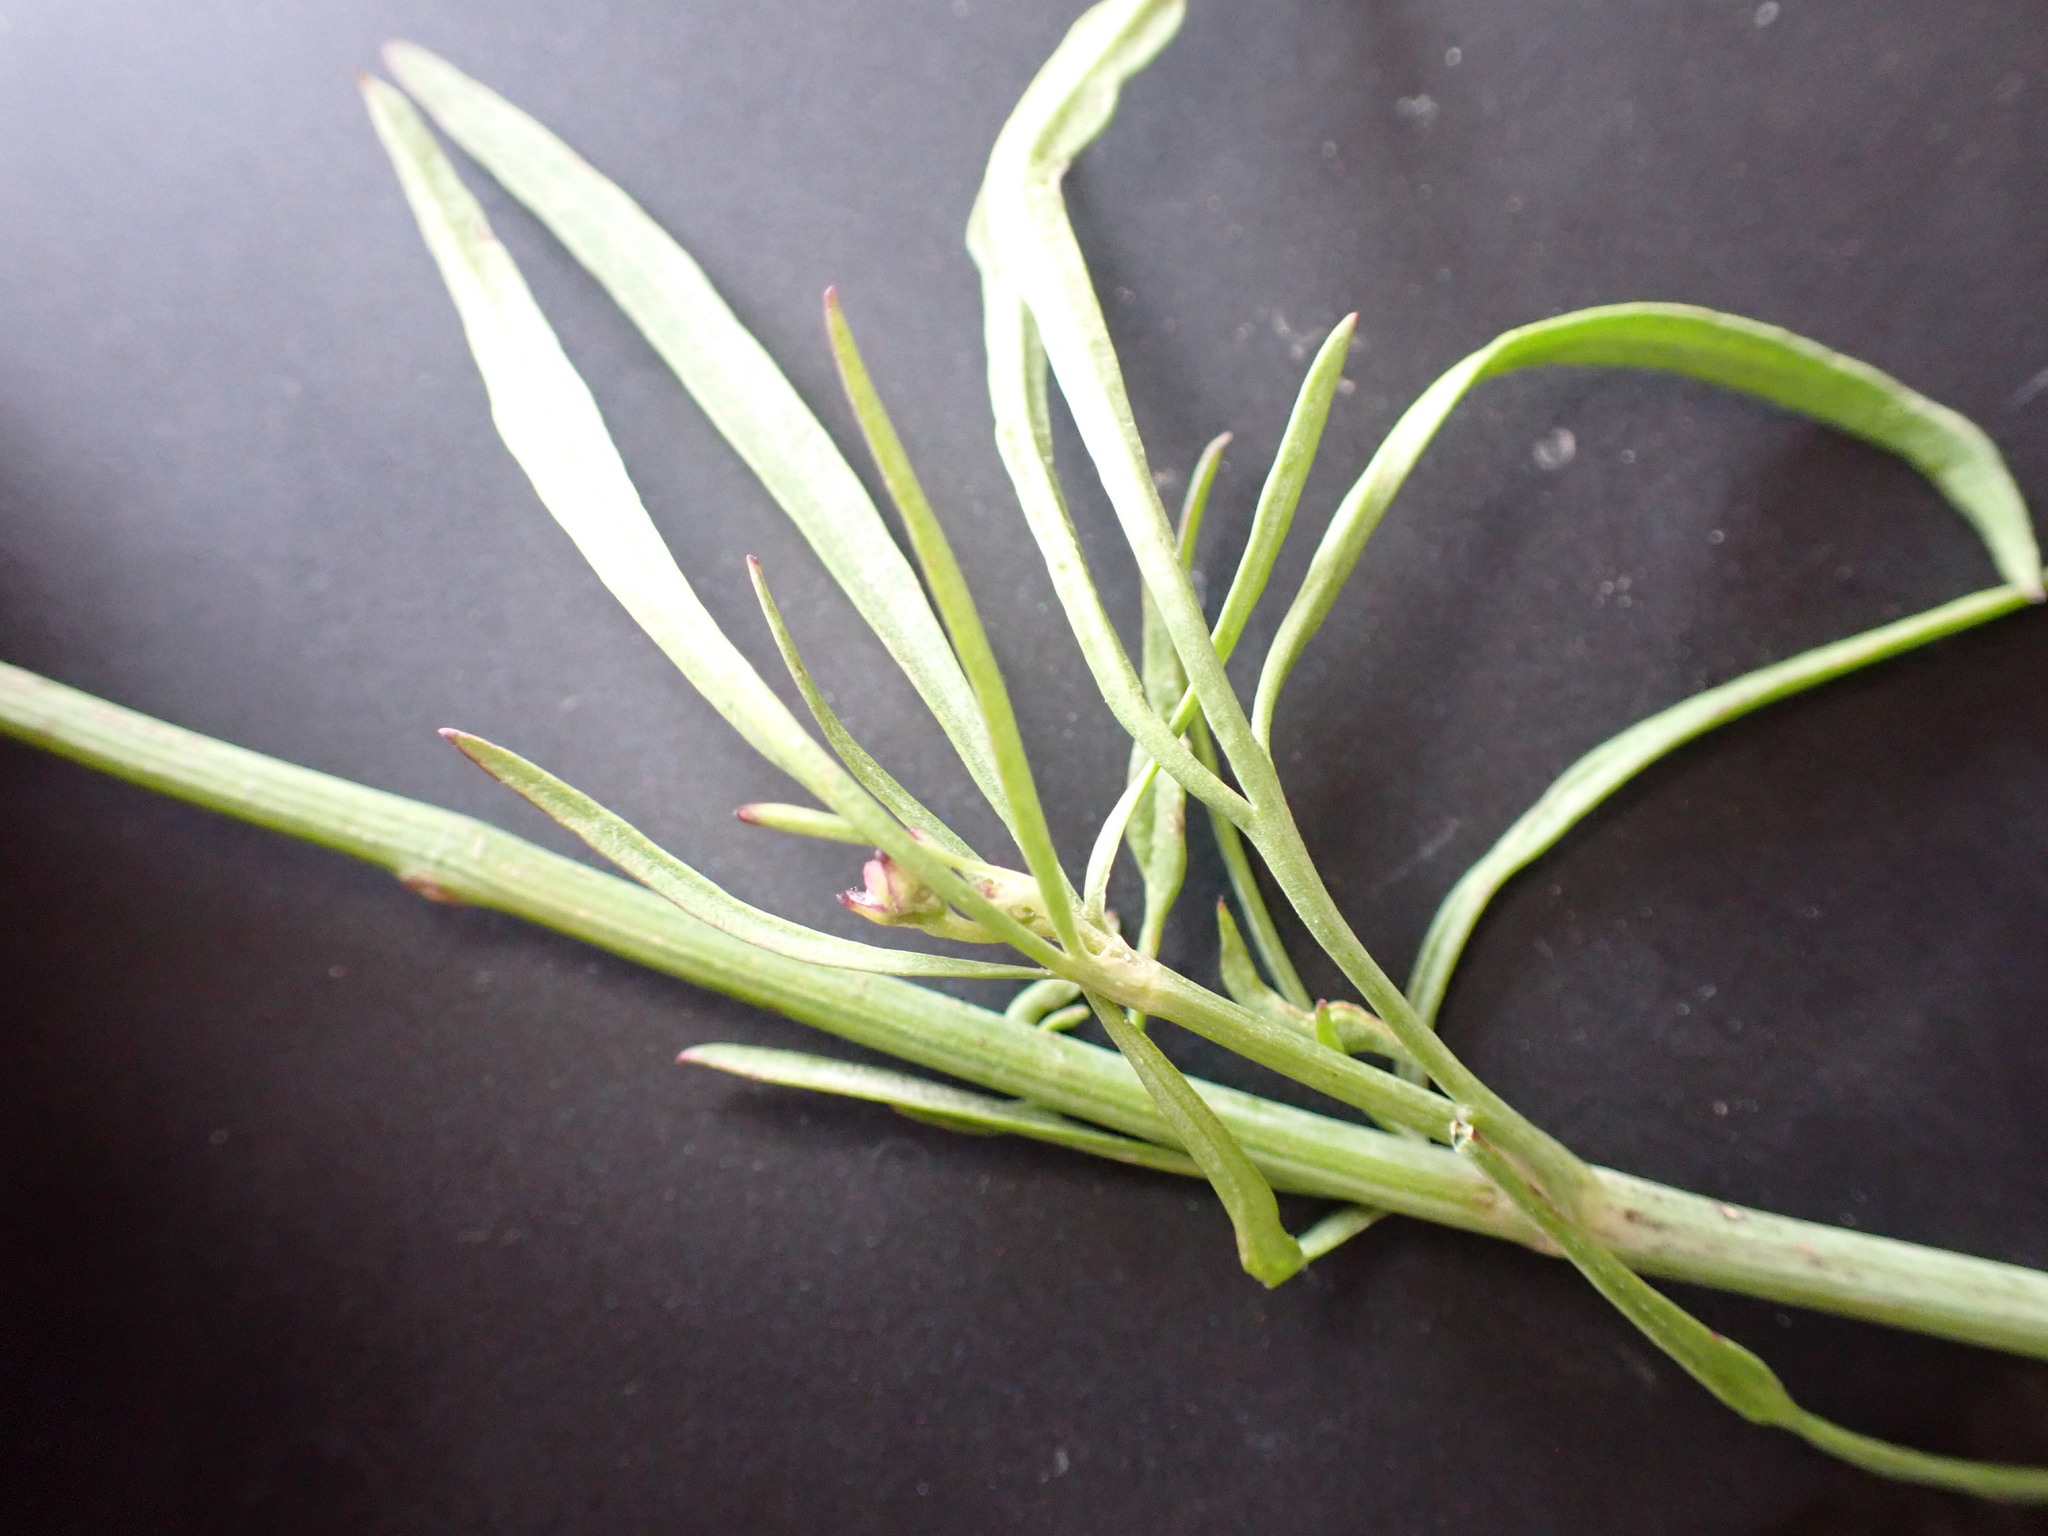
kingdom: Plantae
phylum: Tracheophyta
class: Magnoliopsida
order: Asterales
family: Asteraceae
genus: Coreopsis
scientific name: Coreopsis tinctoria
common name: Garden tickseed
